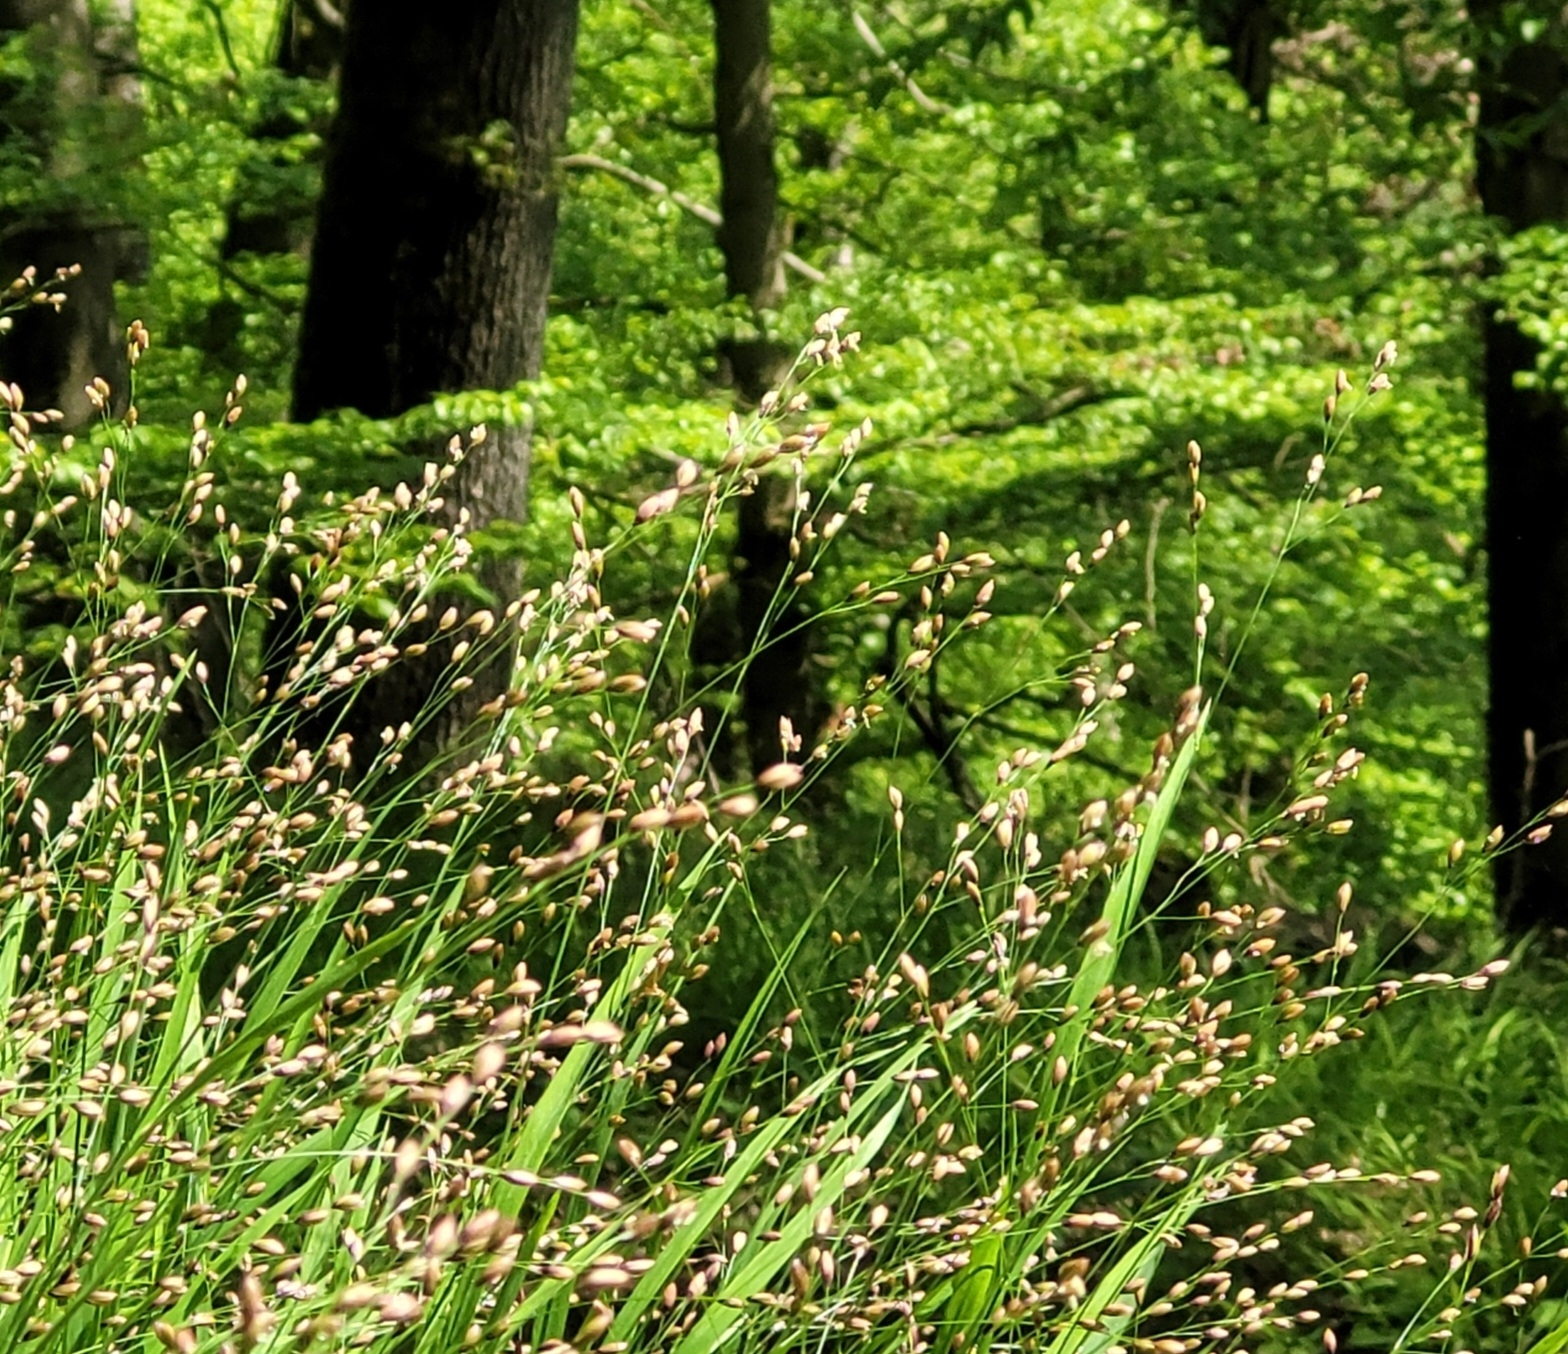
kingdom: Plantae
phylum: Tracheophyta
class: Liliopsida
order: Poales
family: Poaceae
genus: Melica
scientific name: Melica uniflora
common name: Wood melick
